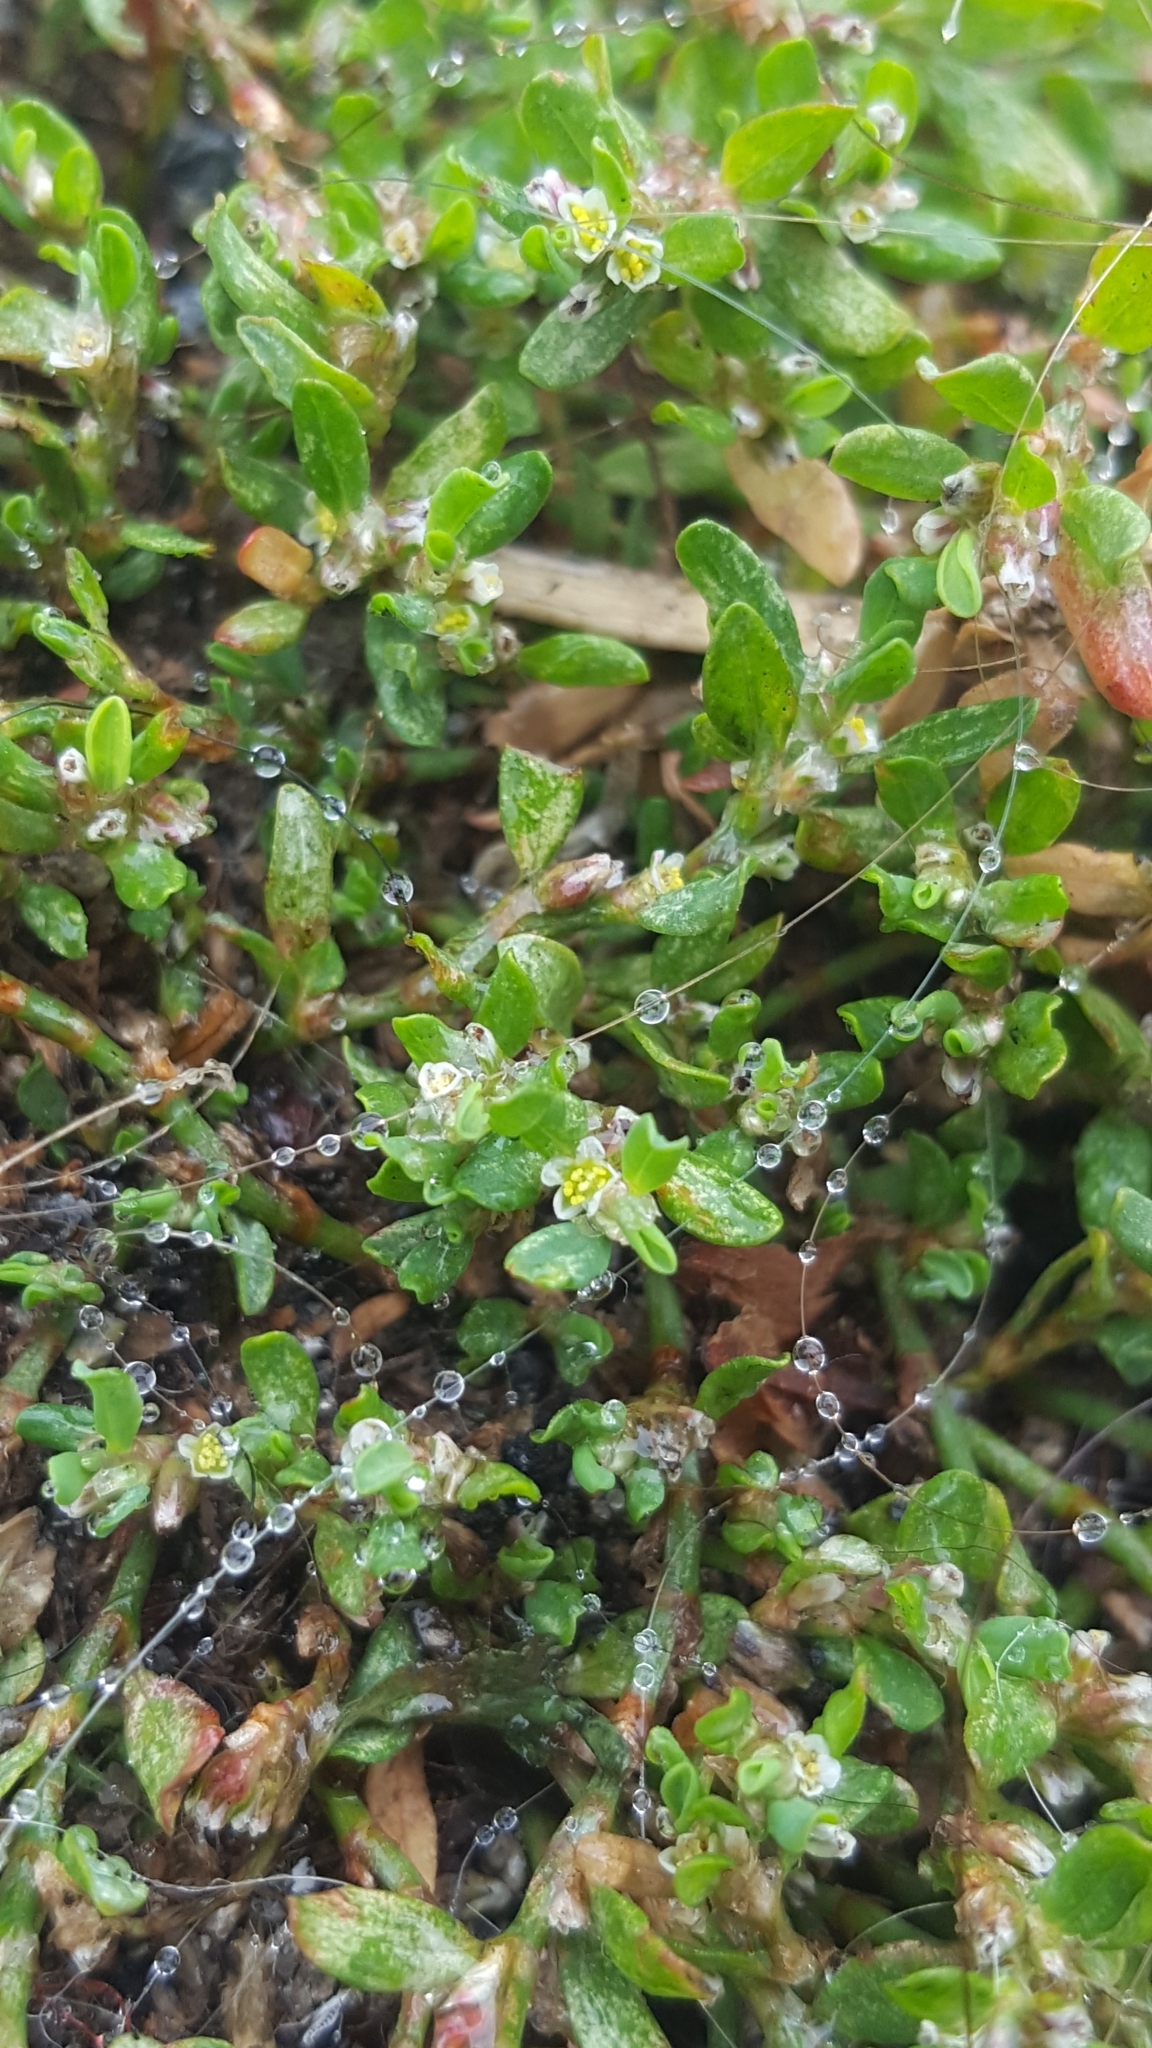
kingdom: Plantae
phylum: Tracheophyta
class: Magnoliopsida
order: Caryophyllales
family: Polygonaceae
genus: Polygonum
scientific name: Polygonum arenastrum
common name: Equal-leaved knotgrass
